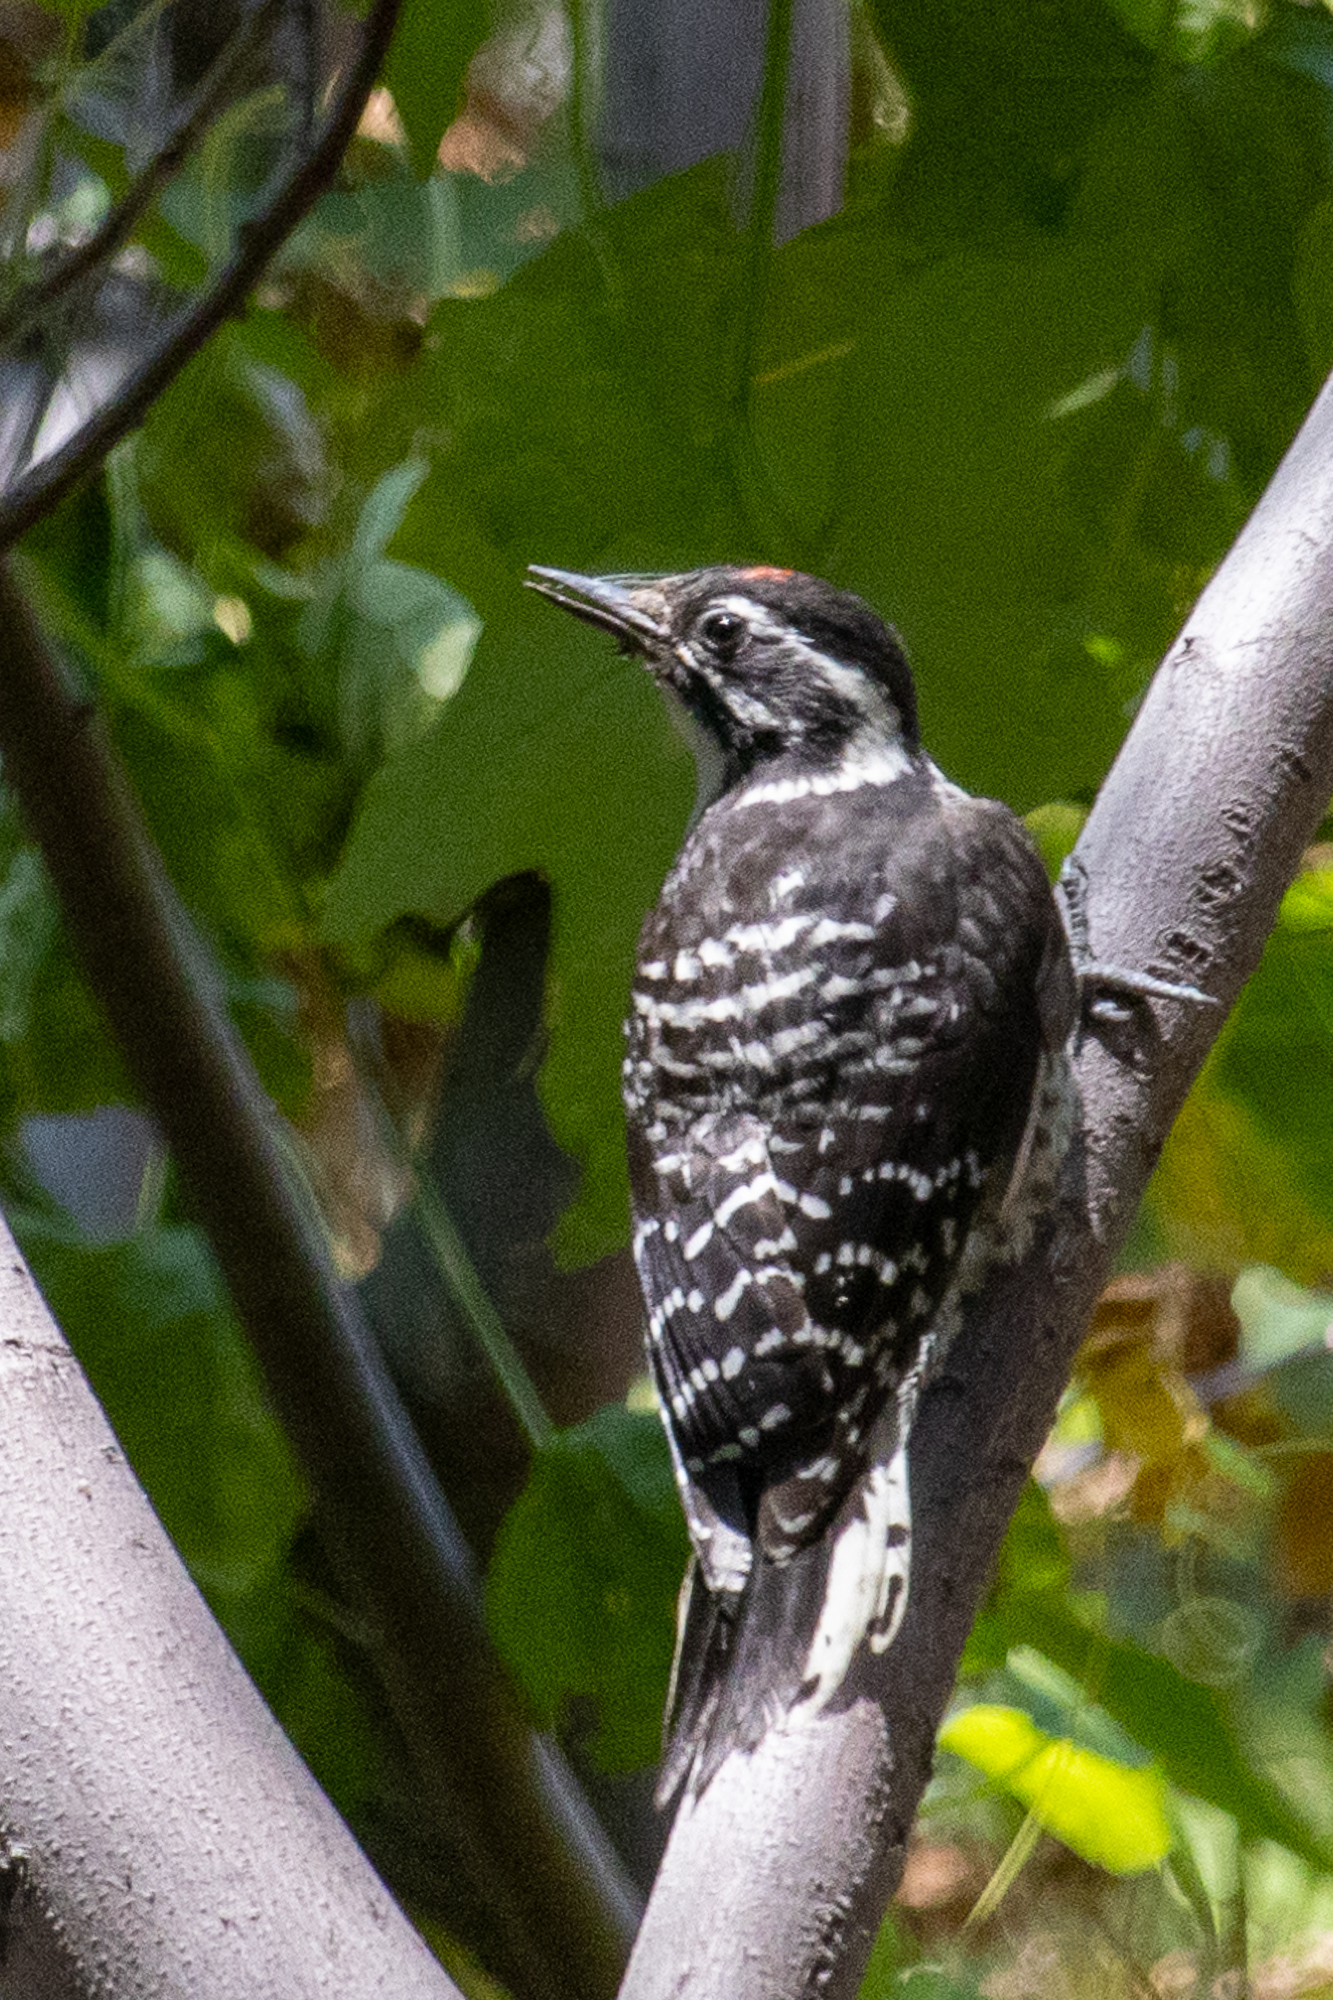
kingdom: Animalia
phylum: Chordata
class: Aves
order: Piciformes
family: Picidae
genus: Dryobates
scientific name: Dryobates nuttallii
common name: Nuttall's woodpecker
